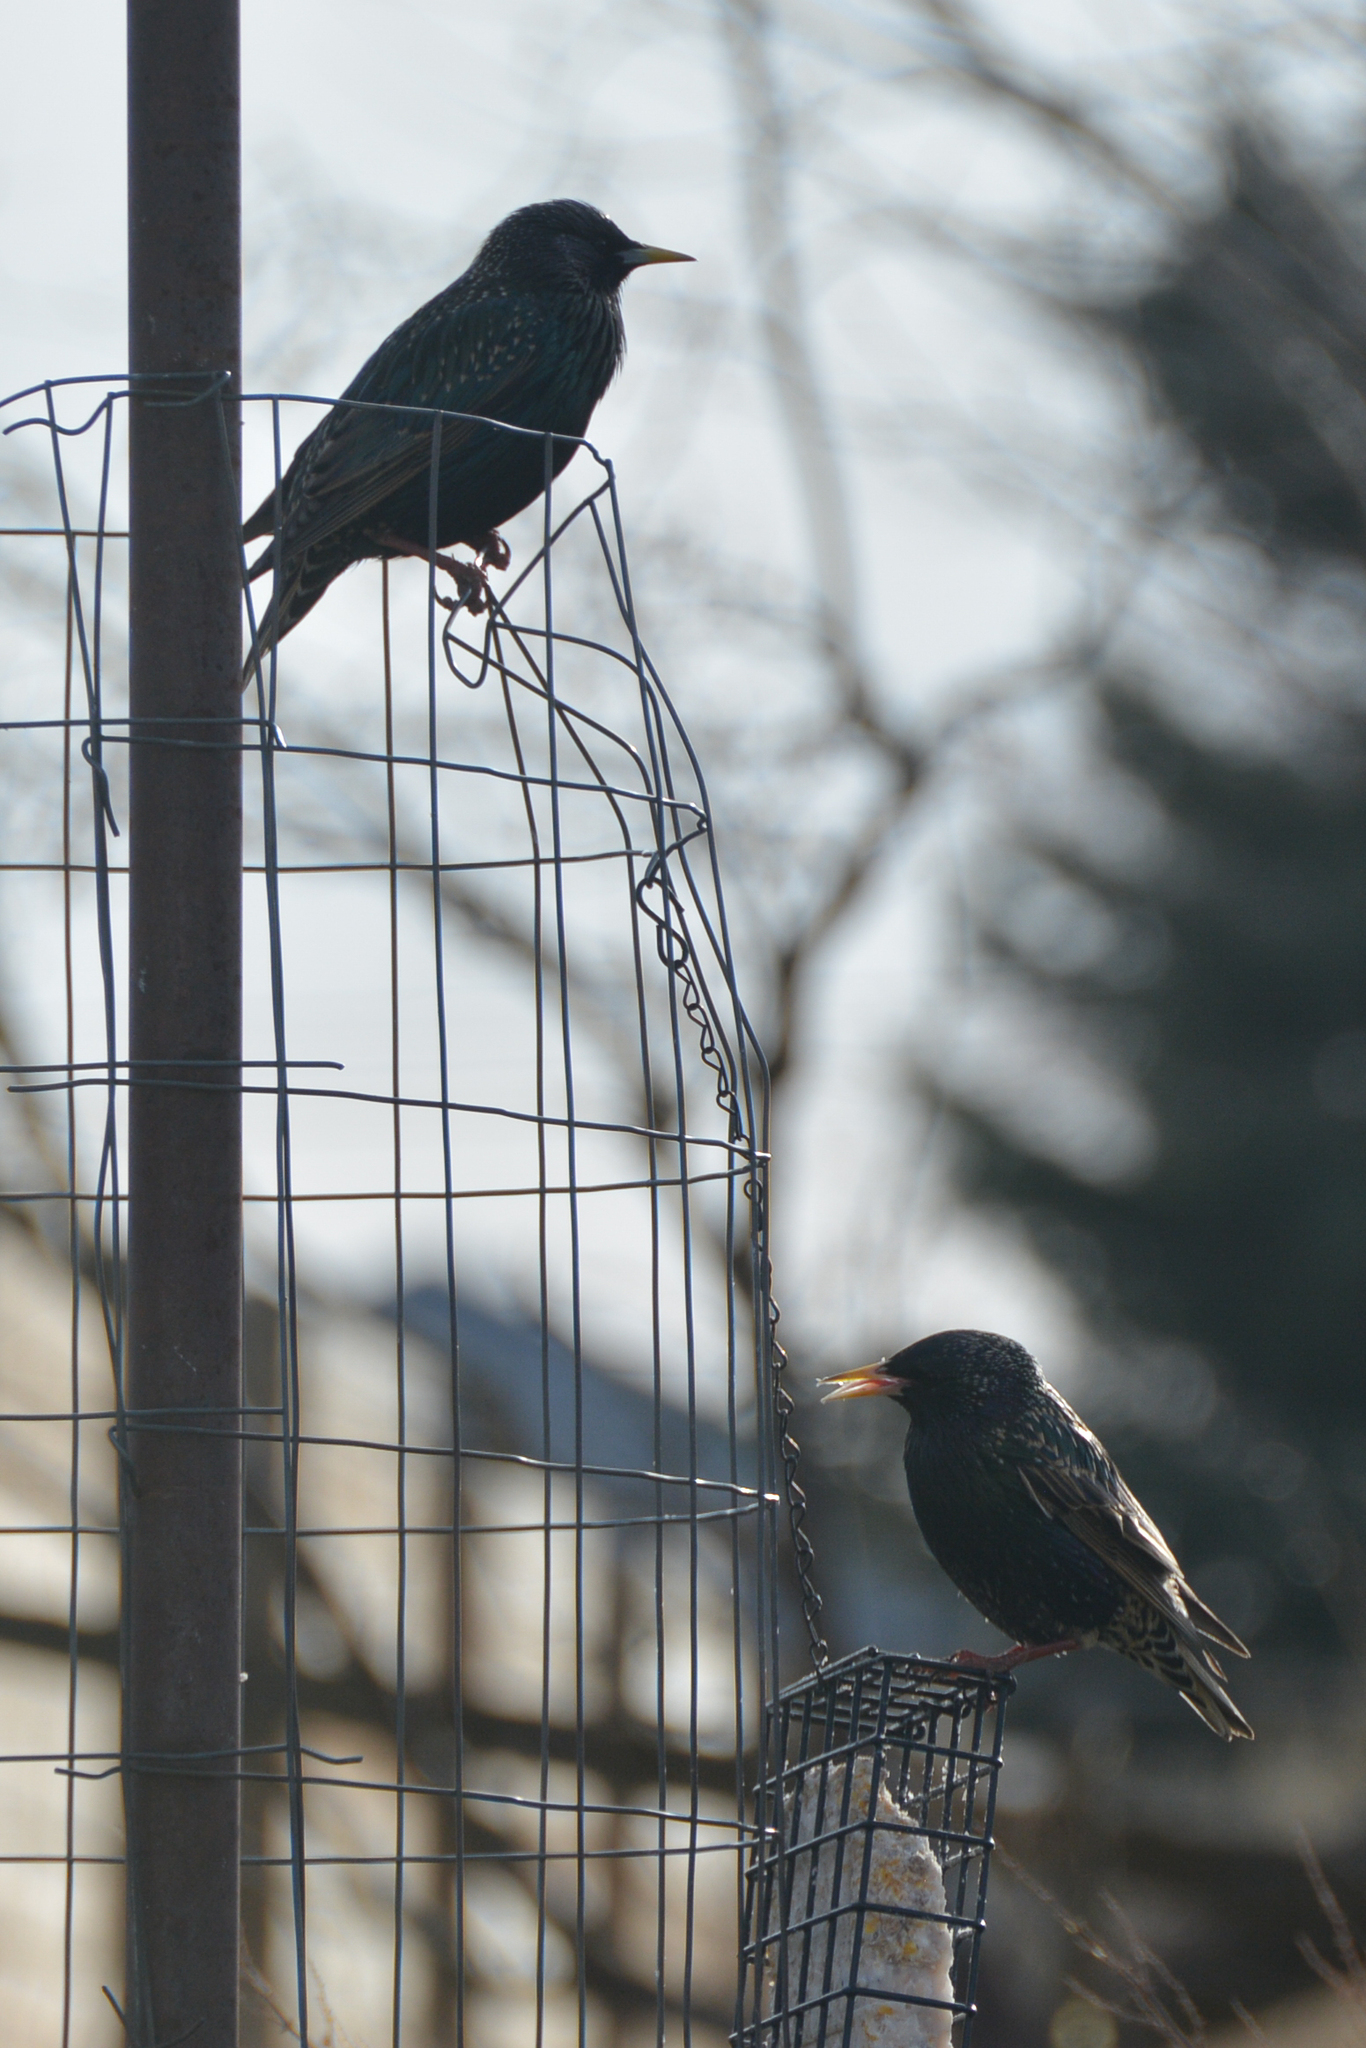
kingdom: Animalia
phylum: Chordata
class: Aves
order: Passeriformes
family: Sturnidae
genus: Sturnus
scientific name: Sturnus vulgaris
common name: Common starling
